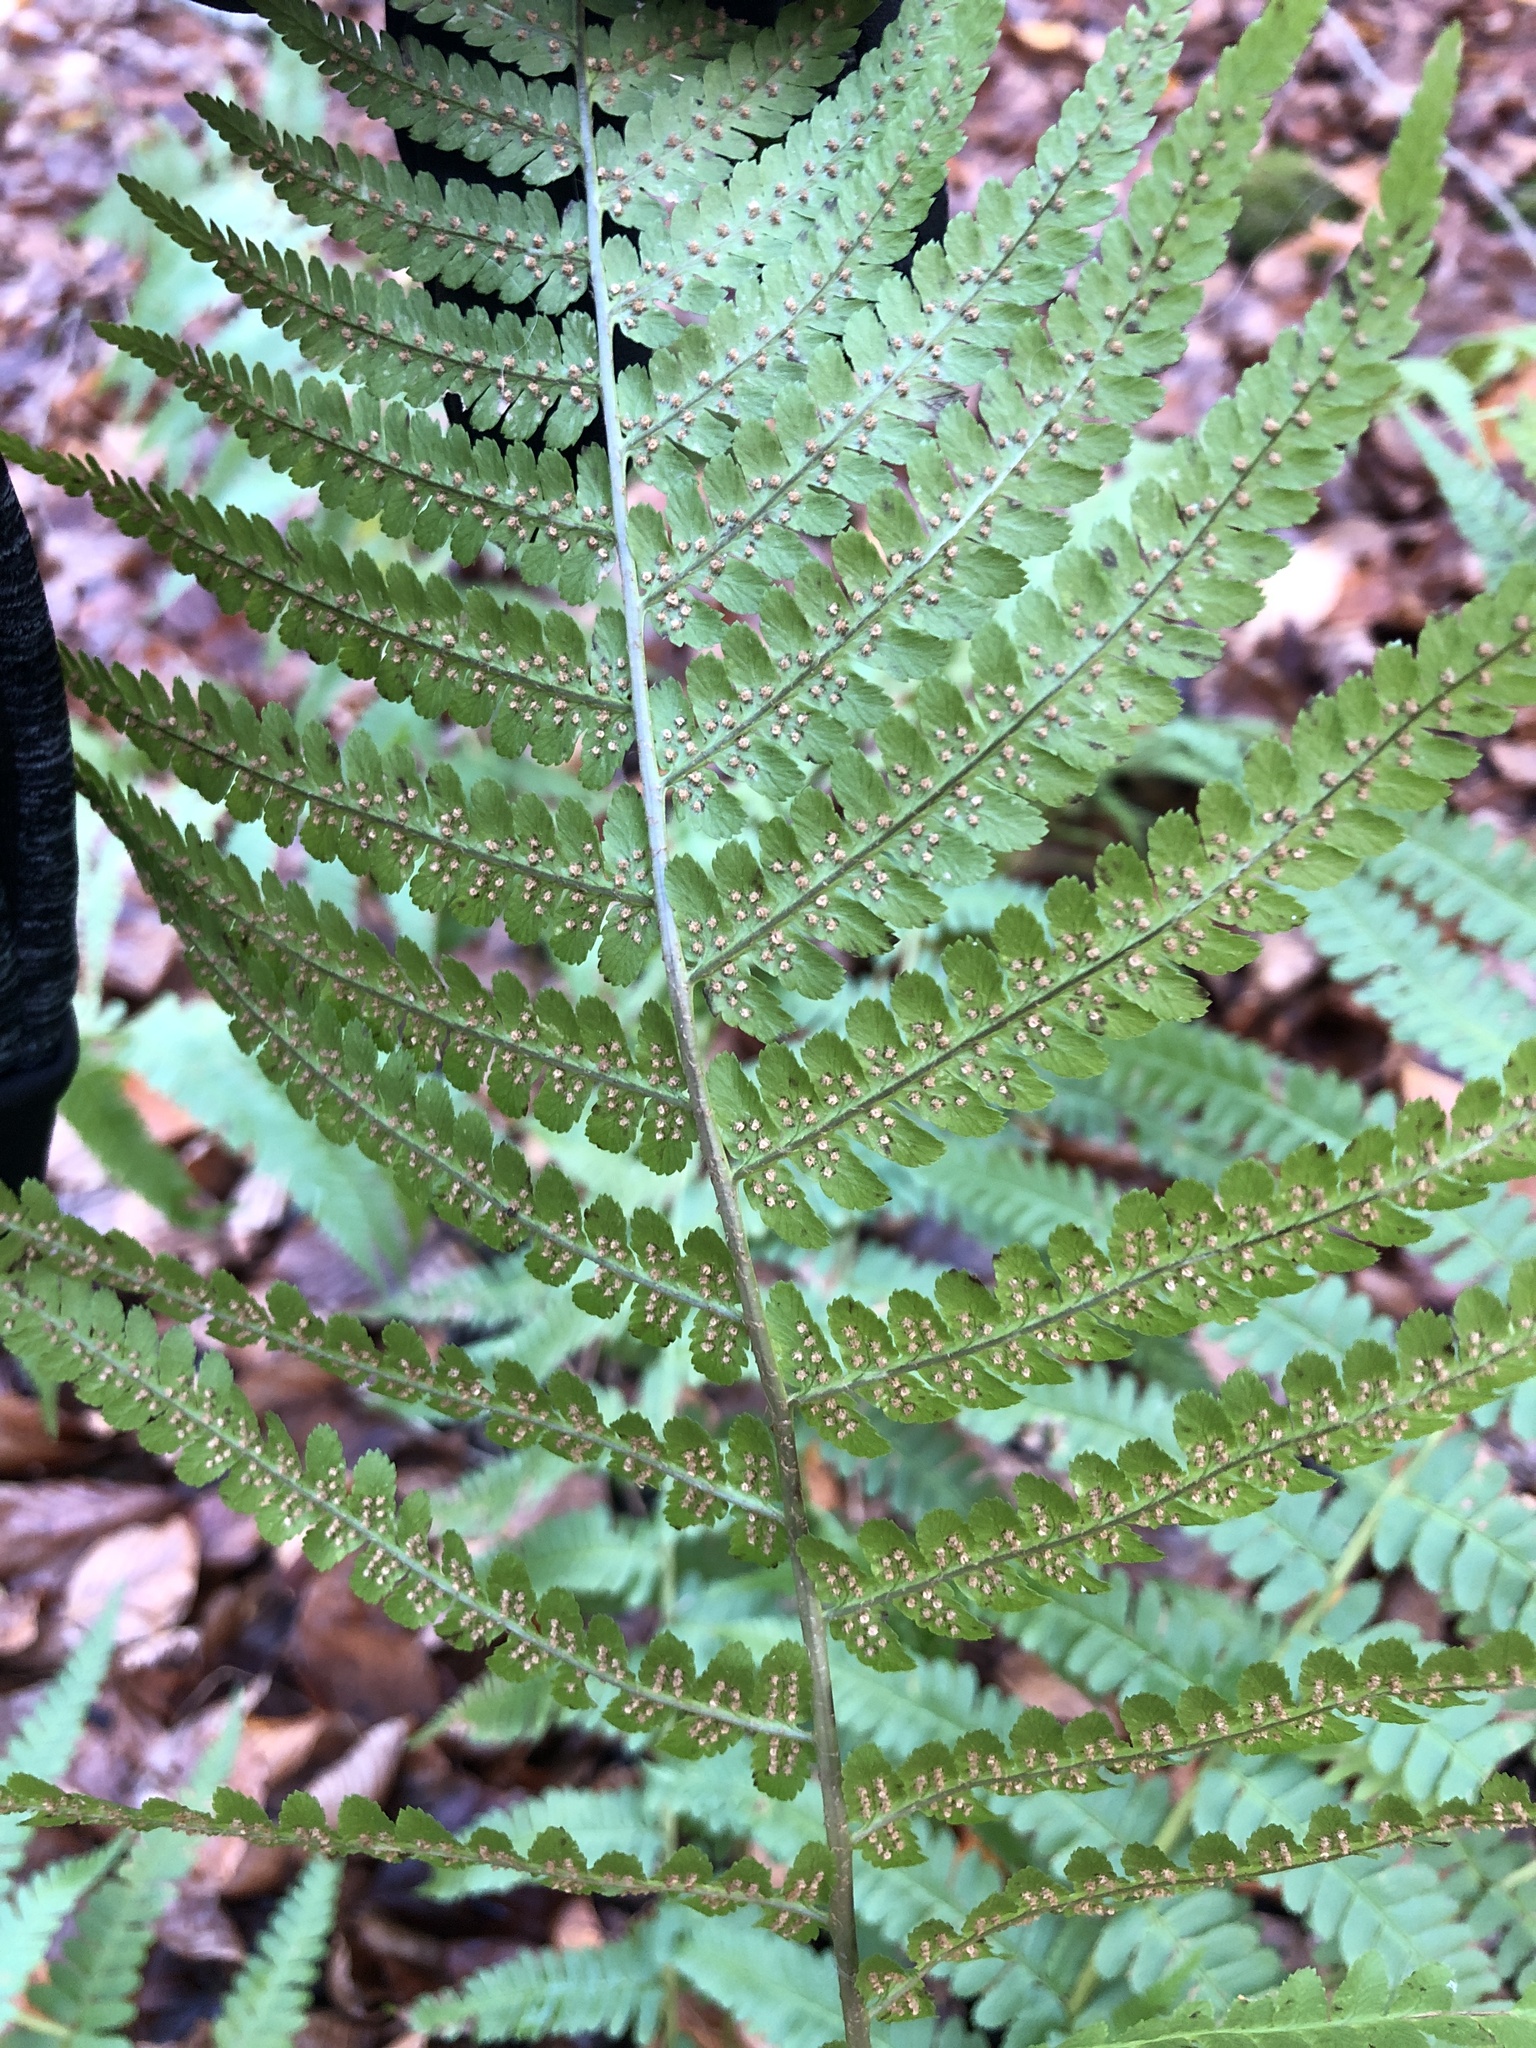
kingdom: Plantae
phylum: Tracheophyta
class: Polypodiopsida
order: Polypodiales
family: Dryopteridaceae
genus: Dryopteris
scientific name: Dryopteris filix-mas
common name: Male fern
